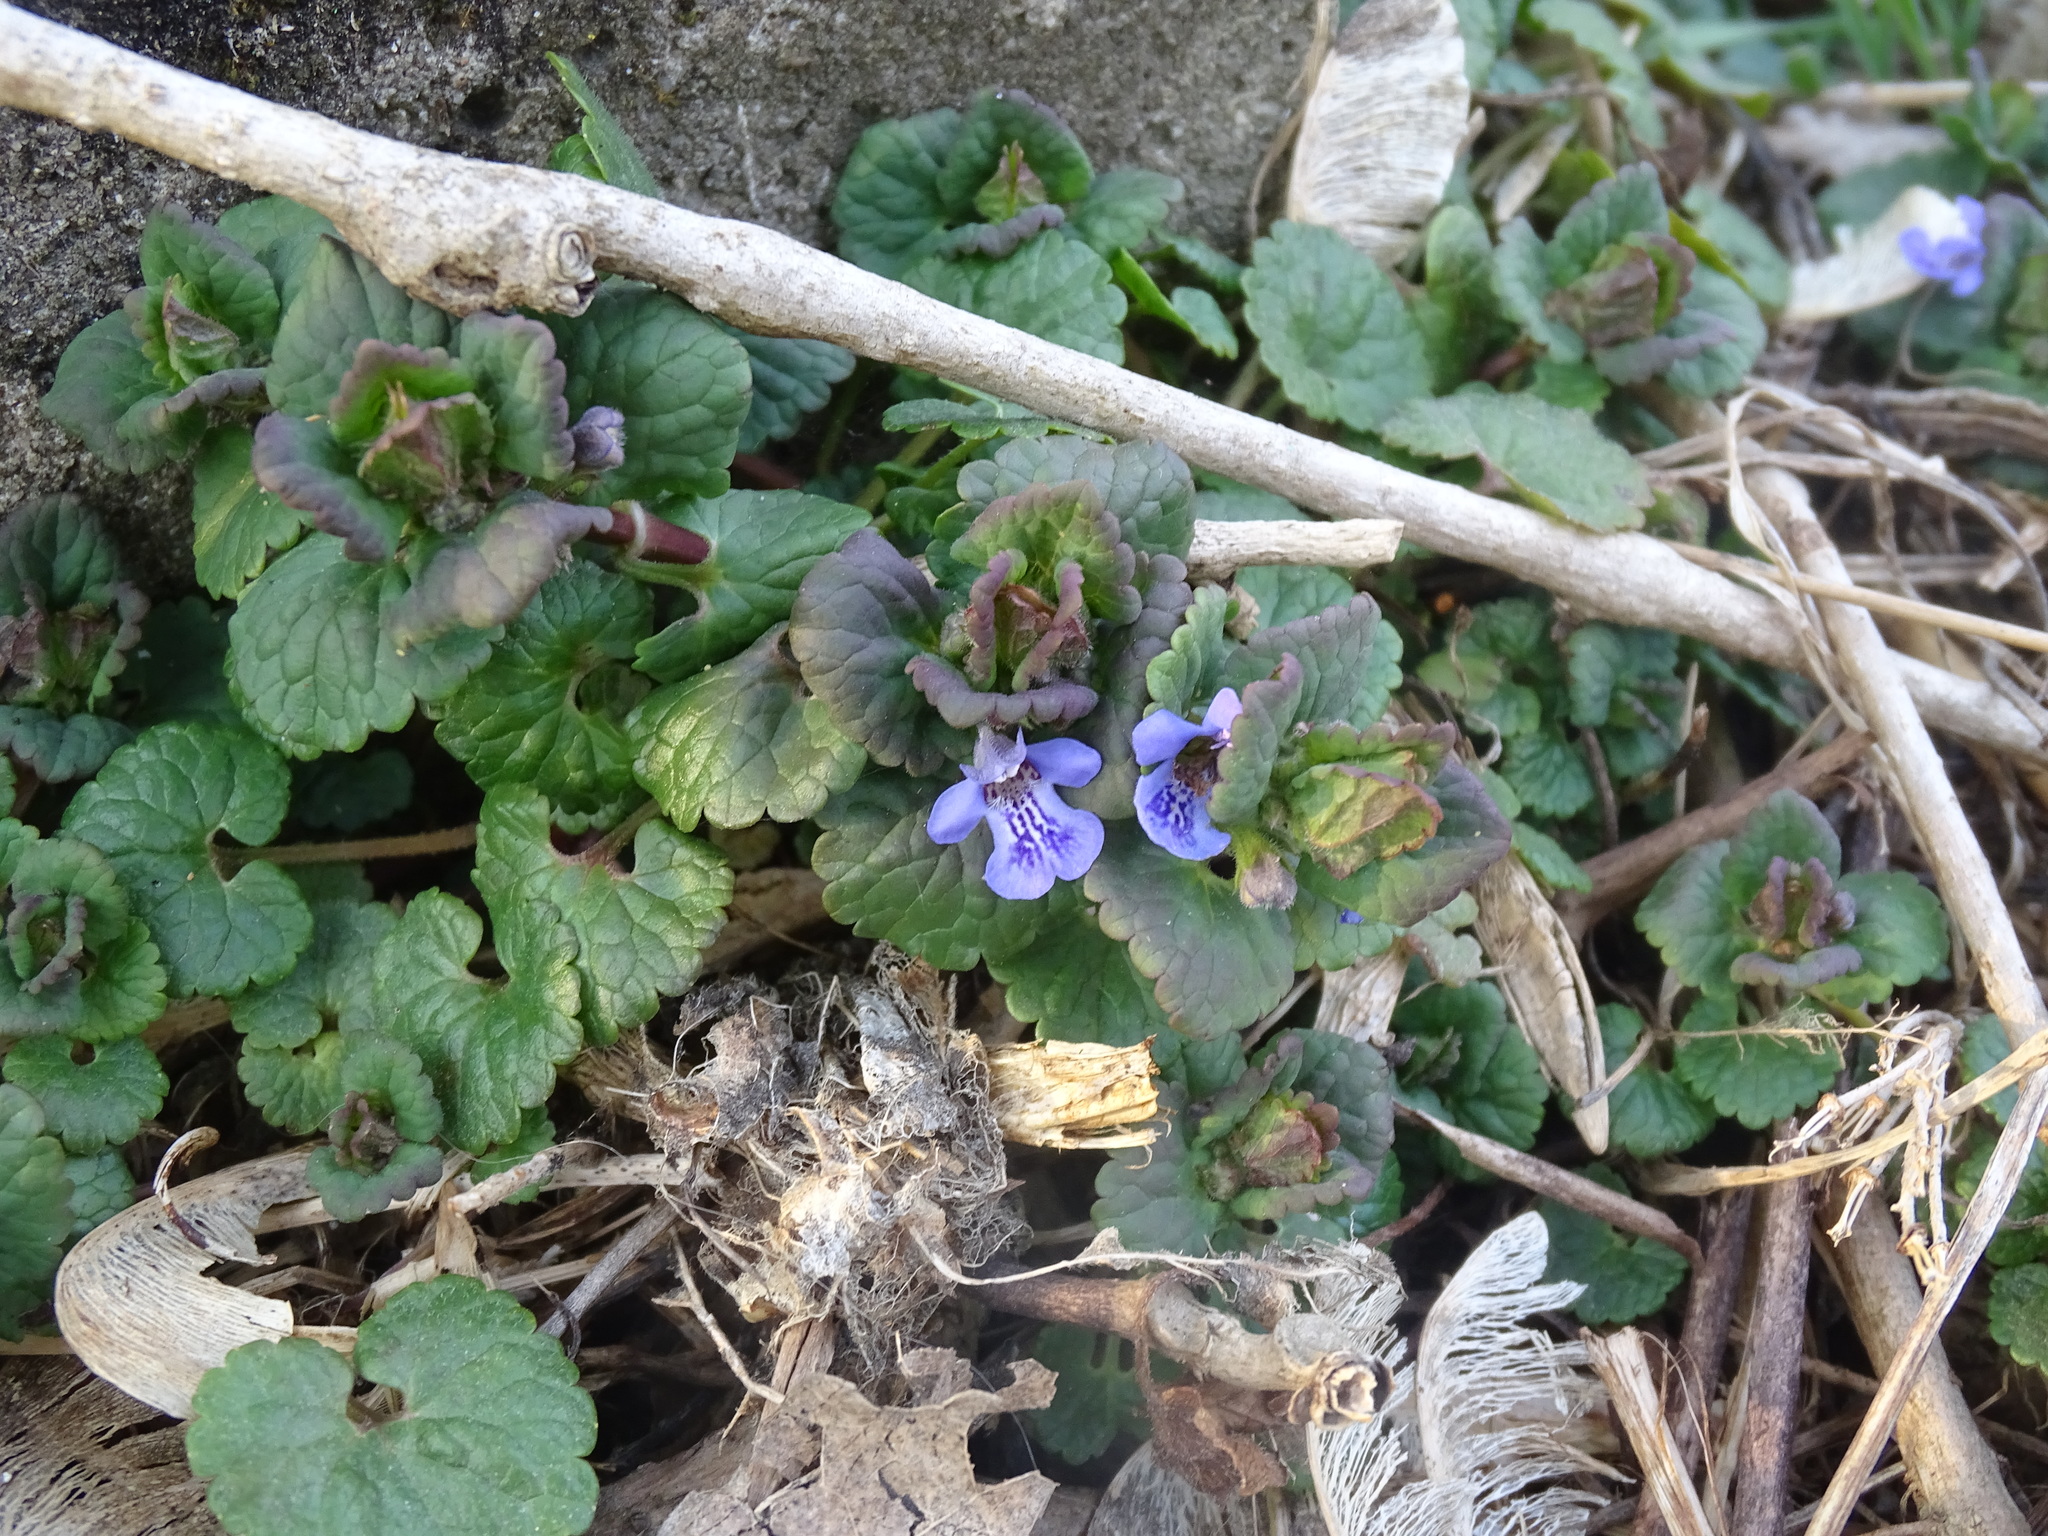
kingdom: Plantae
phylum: Tracheophyta
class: Magnoliopsida
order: Lamiales
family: Lamiaceae
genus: Glechoma
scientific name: Glechoma hederacea
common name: Ground ivy
